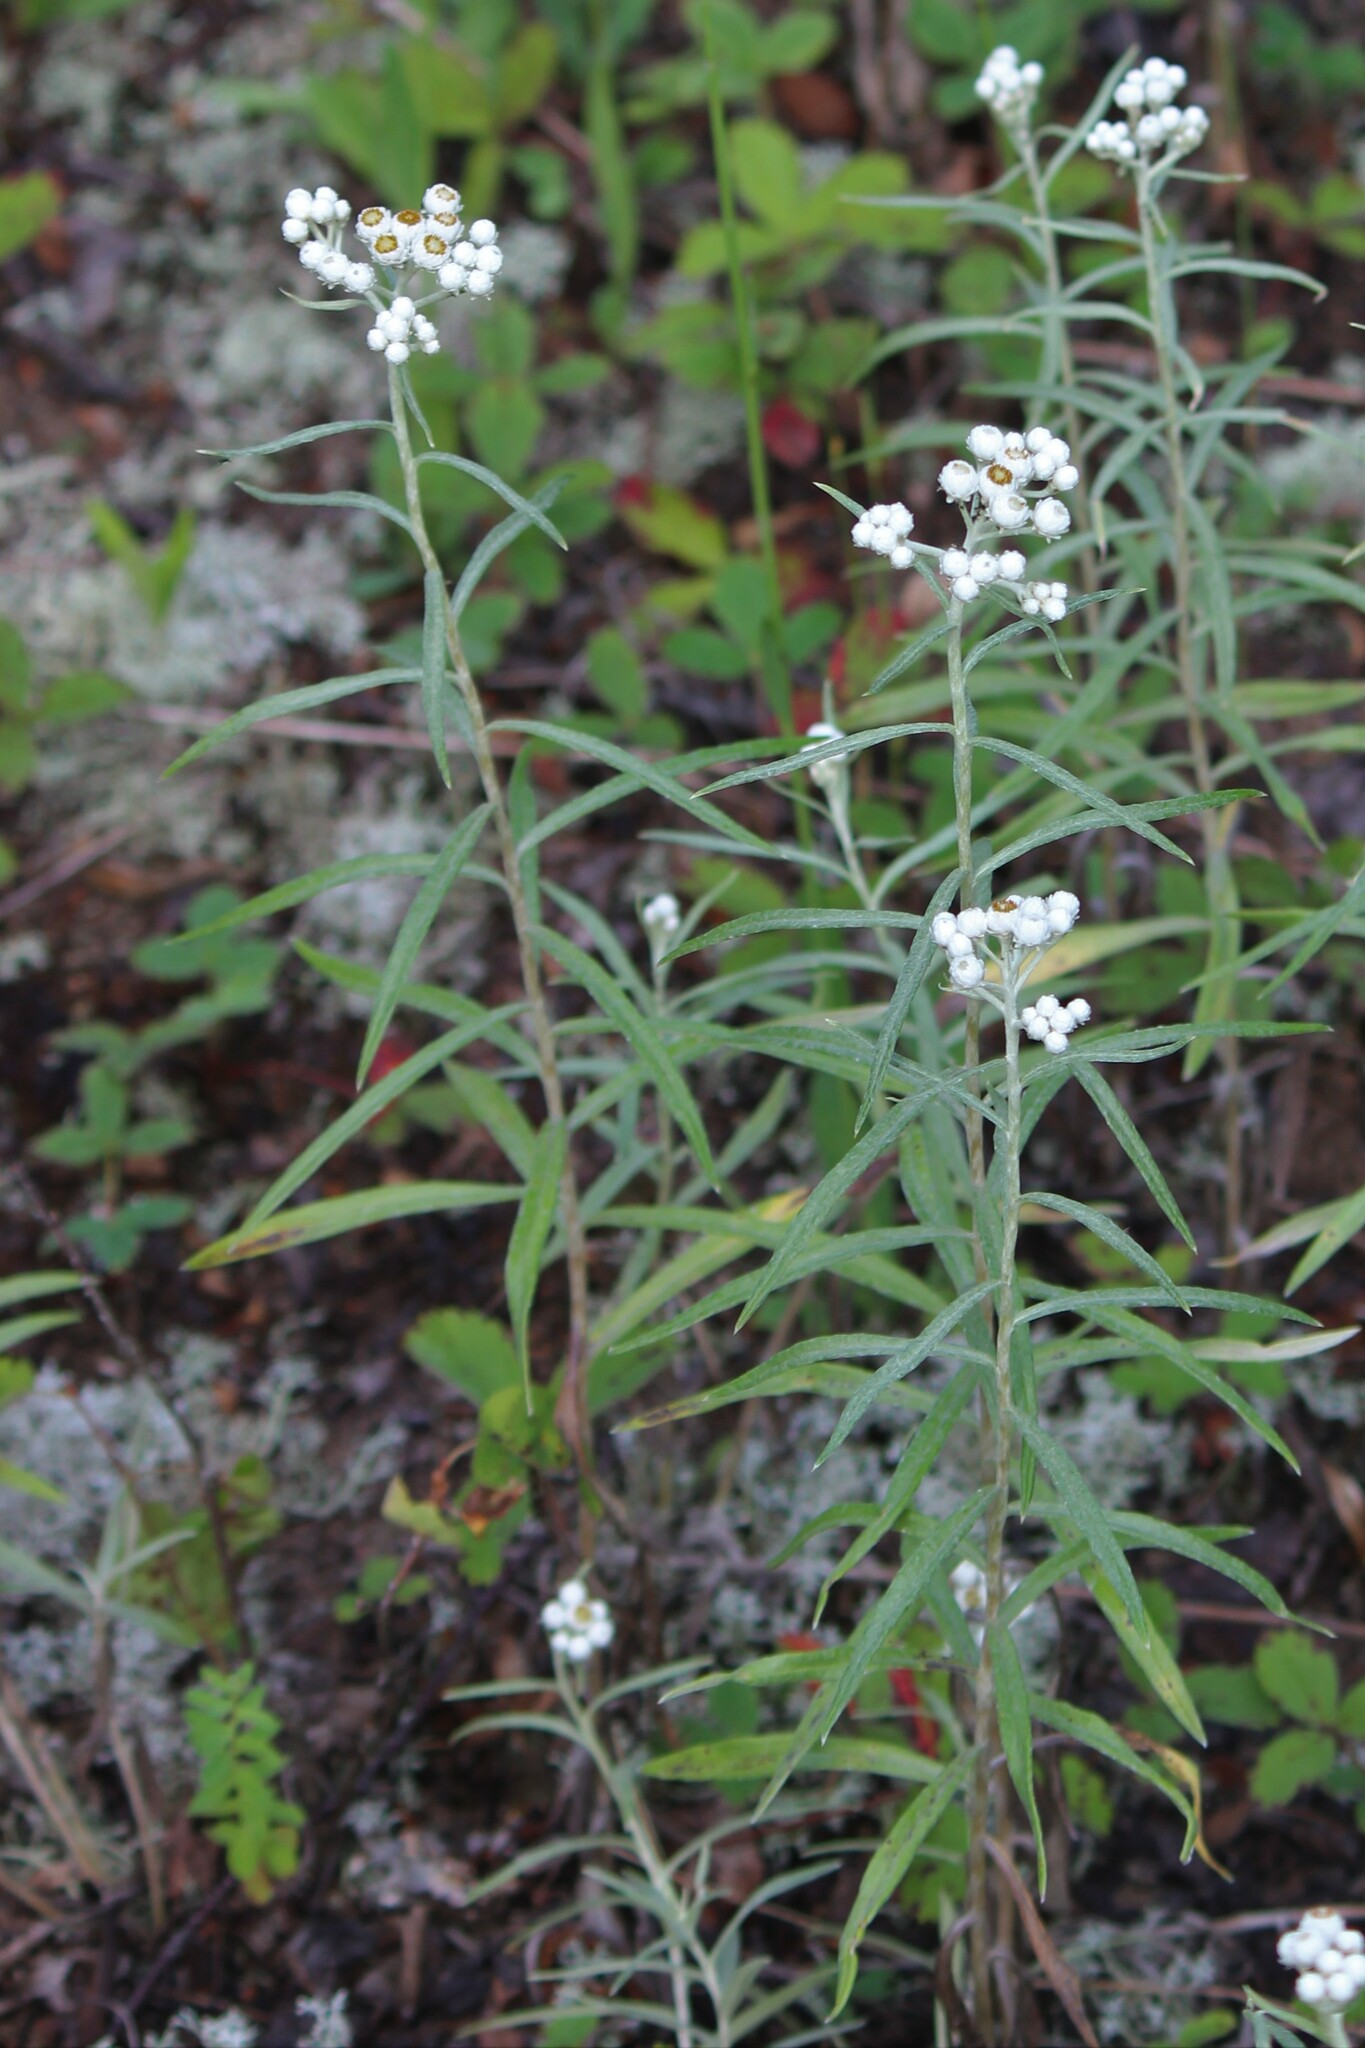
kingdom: Plantae
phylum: Tracheophyta
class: Magnoliopsida
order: Asterales
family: Asteraceae
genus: Anaphalis
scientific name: Anaphalis margaritacea
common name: Pearly everlasting
